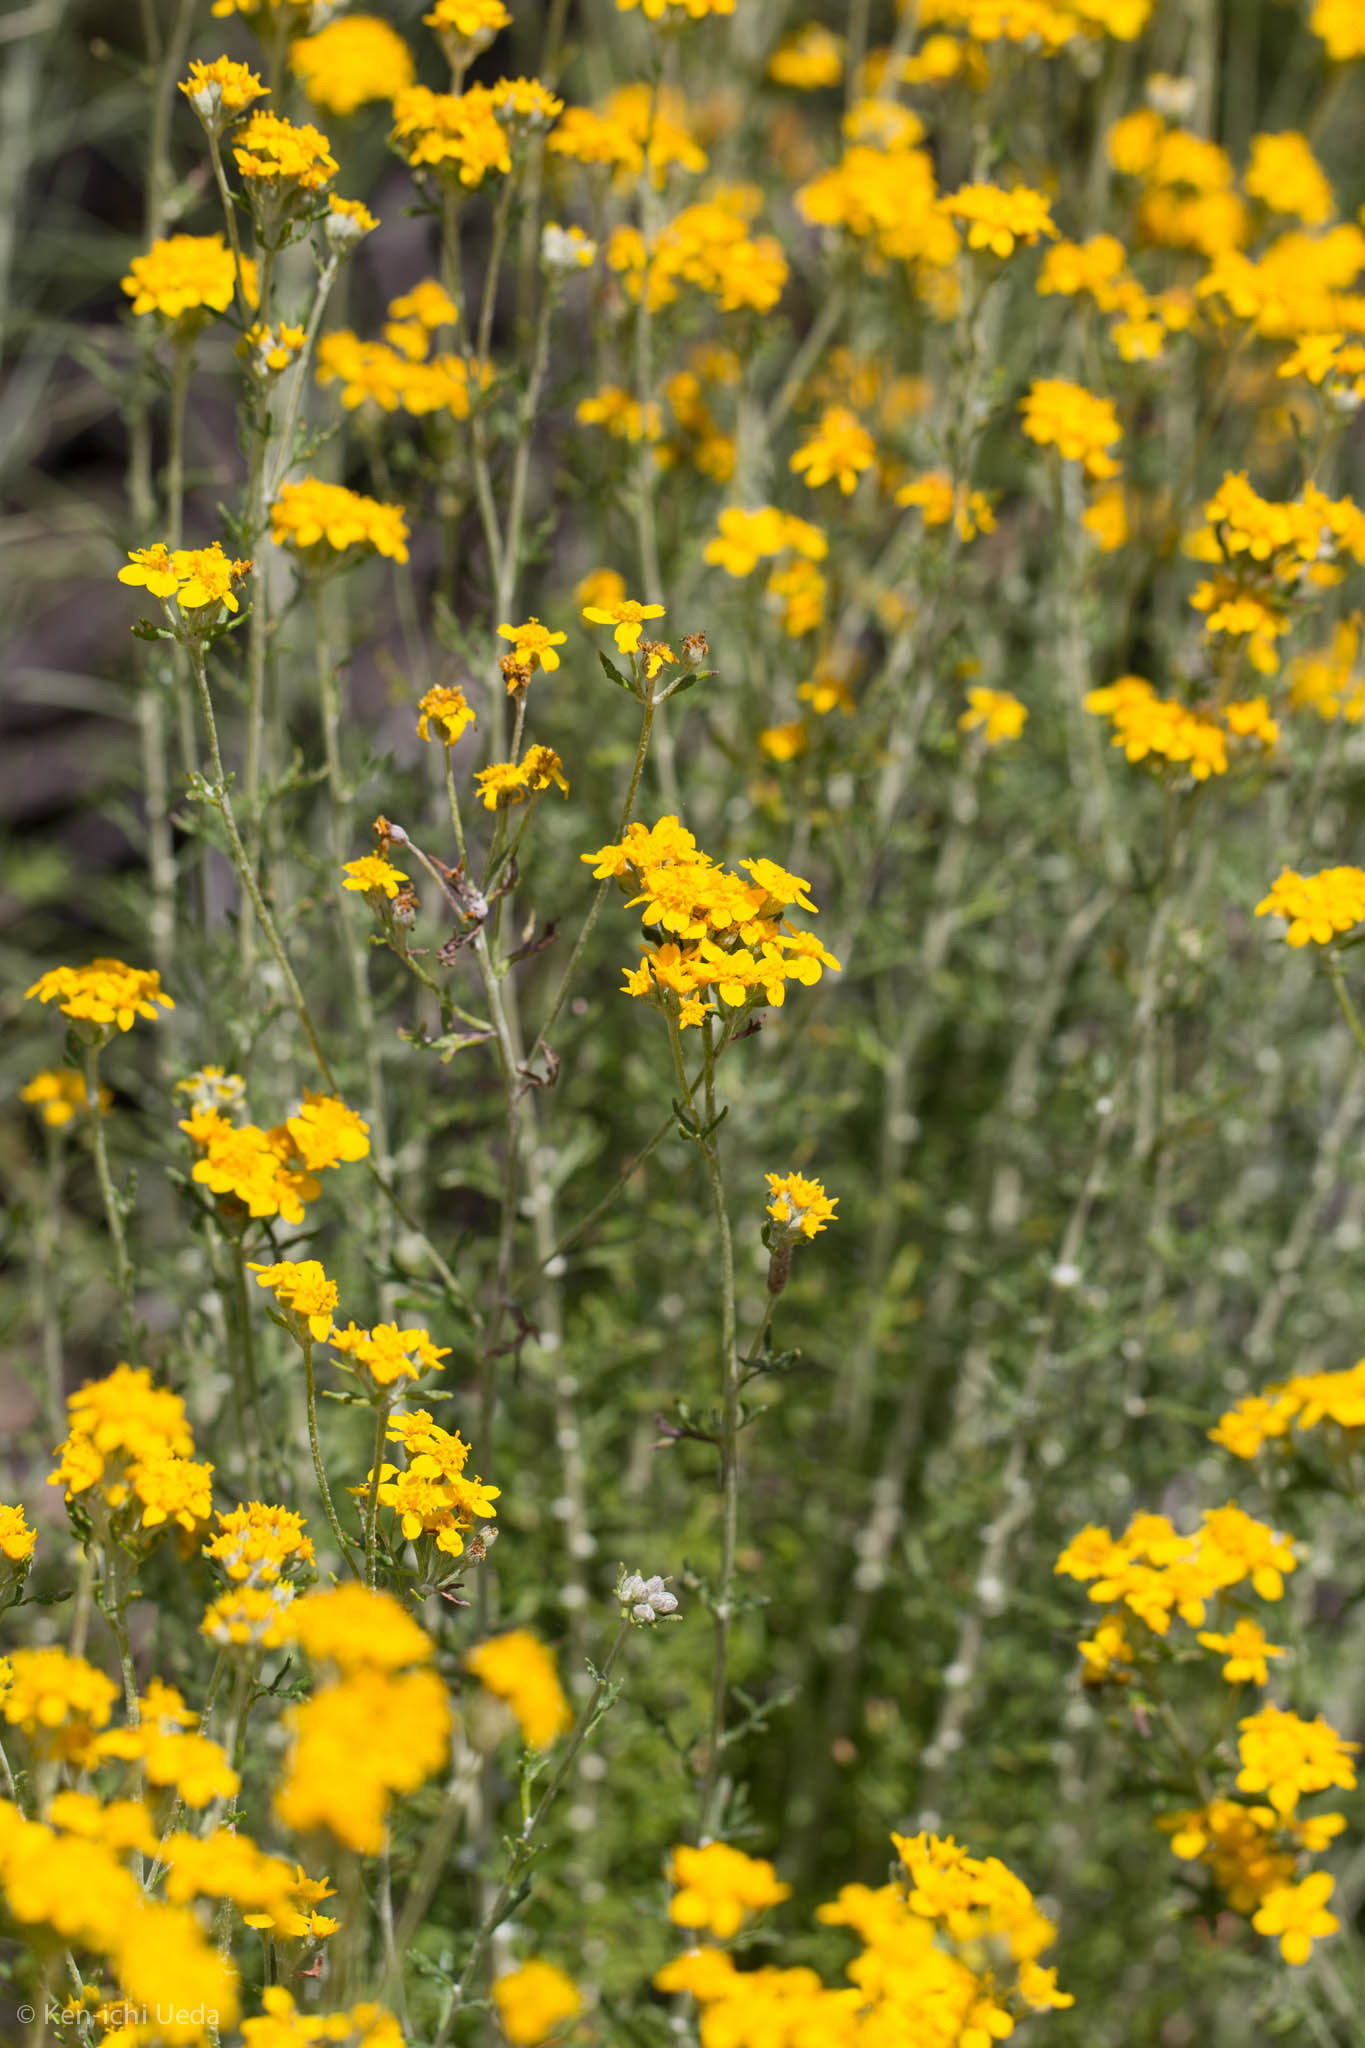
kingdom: Plantae
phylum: Tracheophyta
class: Magnoliopsida
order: Asterales
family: Asteraceae
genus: Eriophyllum
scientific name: Eriophyllum confertiflorum
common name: Golden-yarrow
